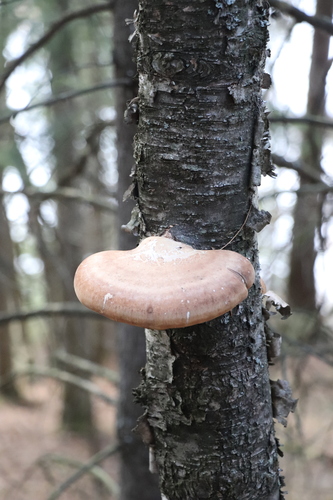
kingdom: Fungi
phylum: Basidiomycota
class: Agaricomycetes
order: Polyporales
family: Fomitopsidaceae
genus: Fomitopsis
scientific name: Fomitopsis betulina
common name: Birch polypore
